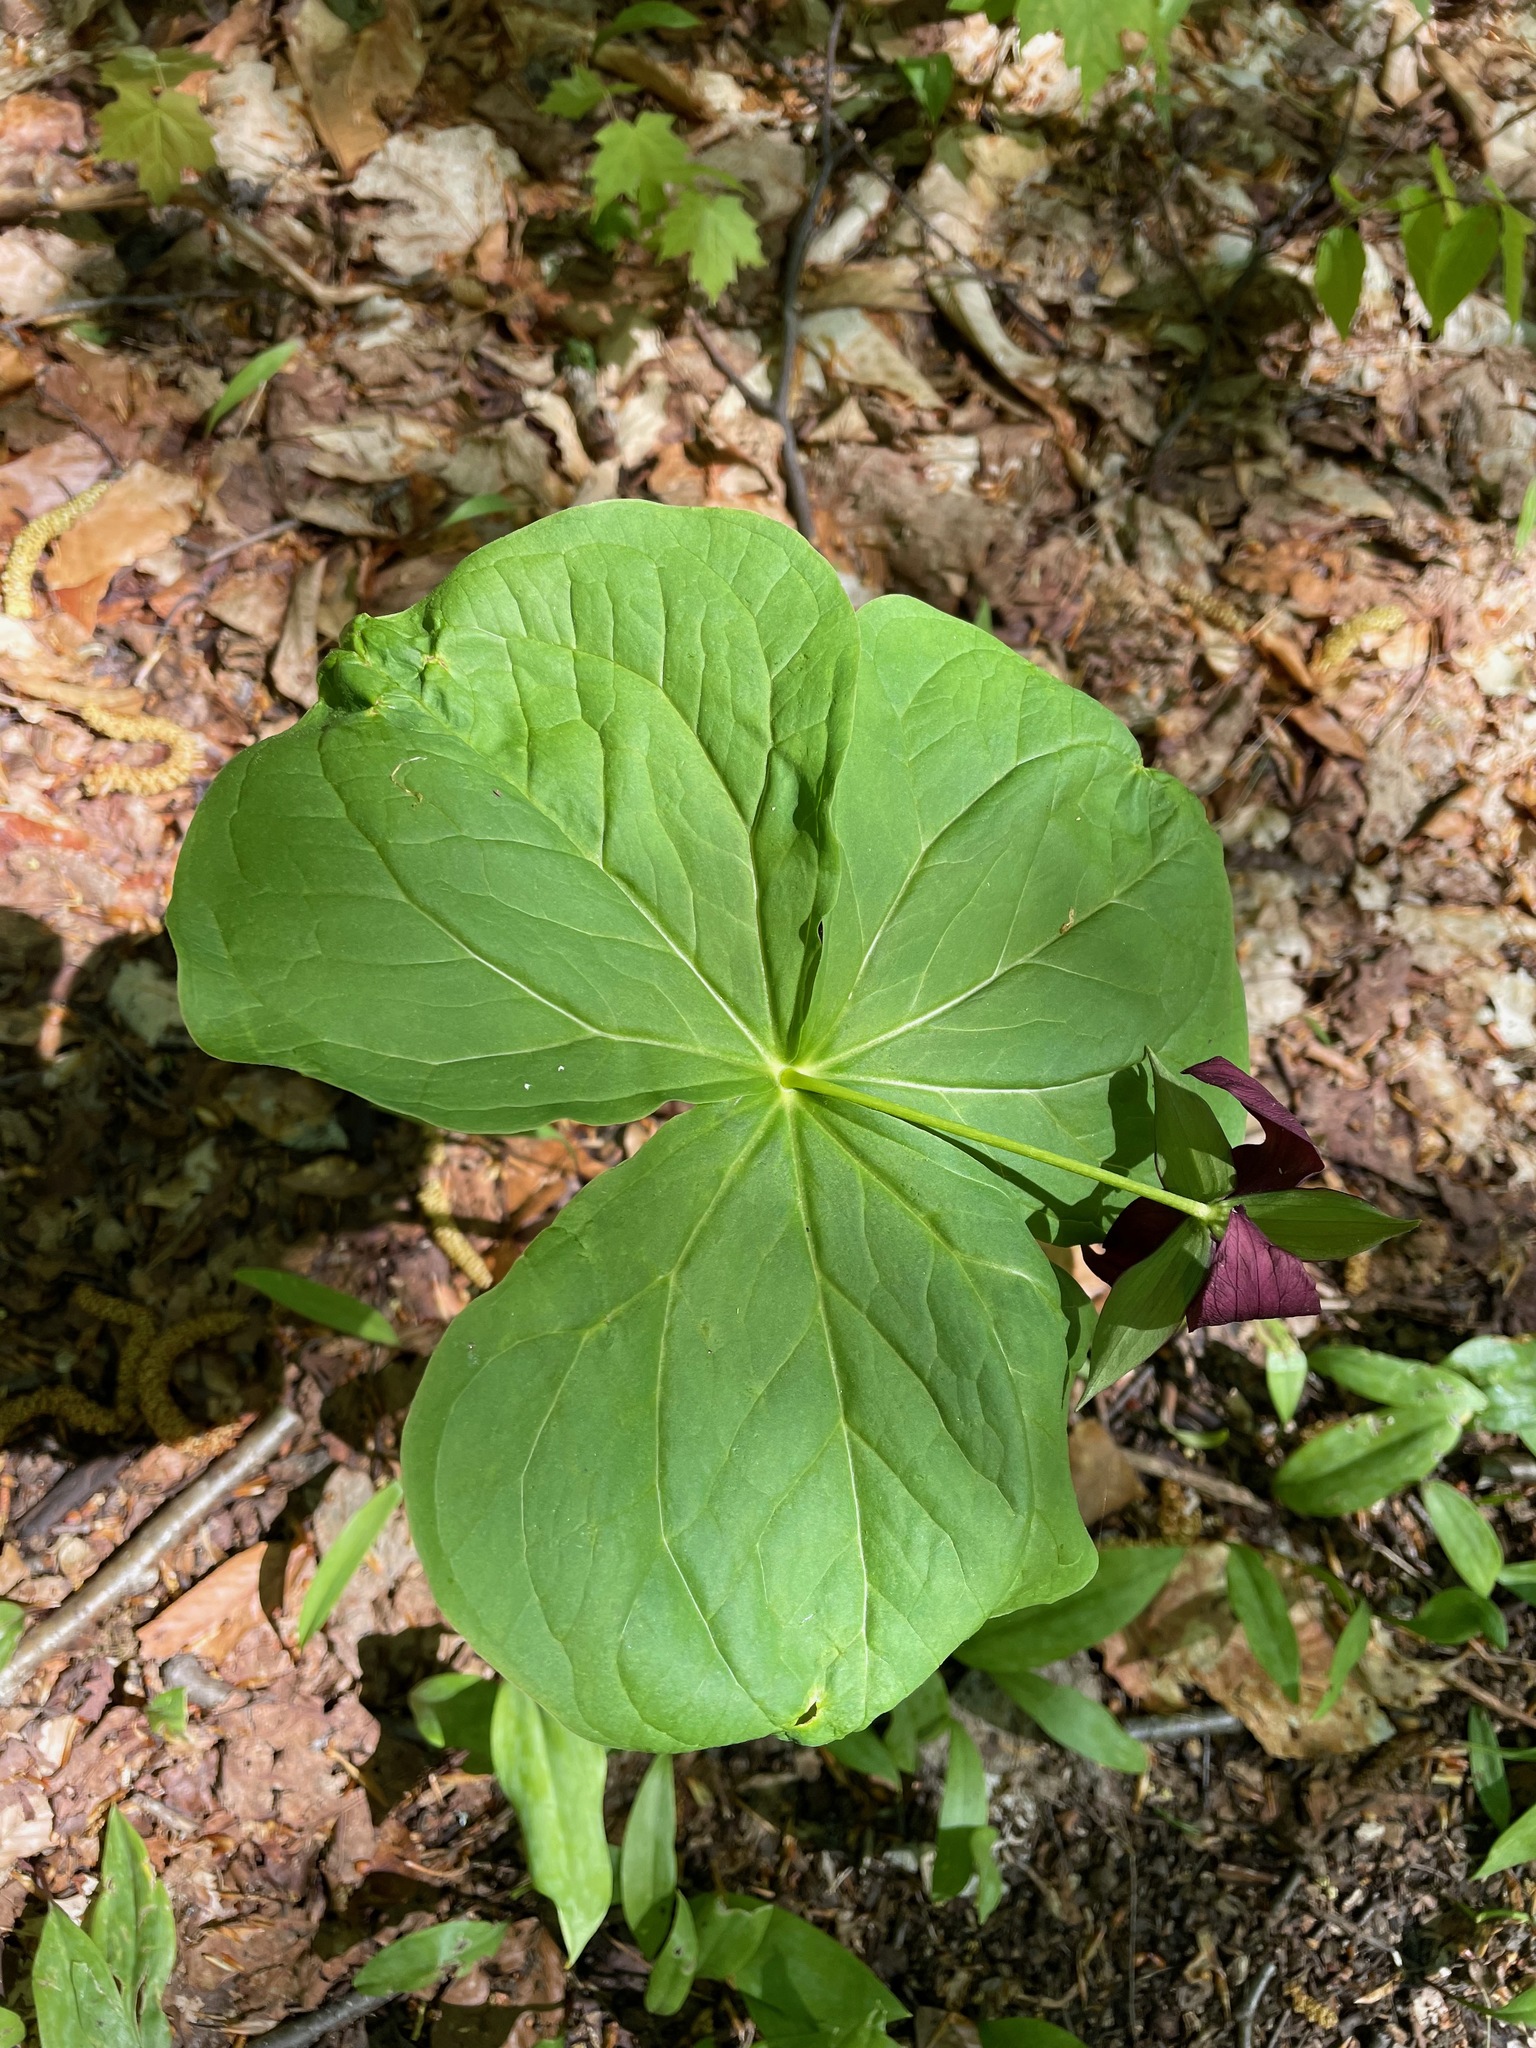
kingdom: Plantae
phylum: Tracheophyta
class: Liliopsida
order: Liliales
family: Melanthiaceae
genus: Trillium
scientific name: Trillium erectum
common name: Purple trillium
